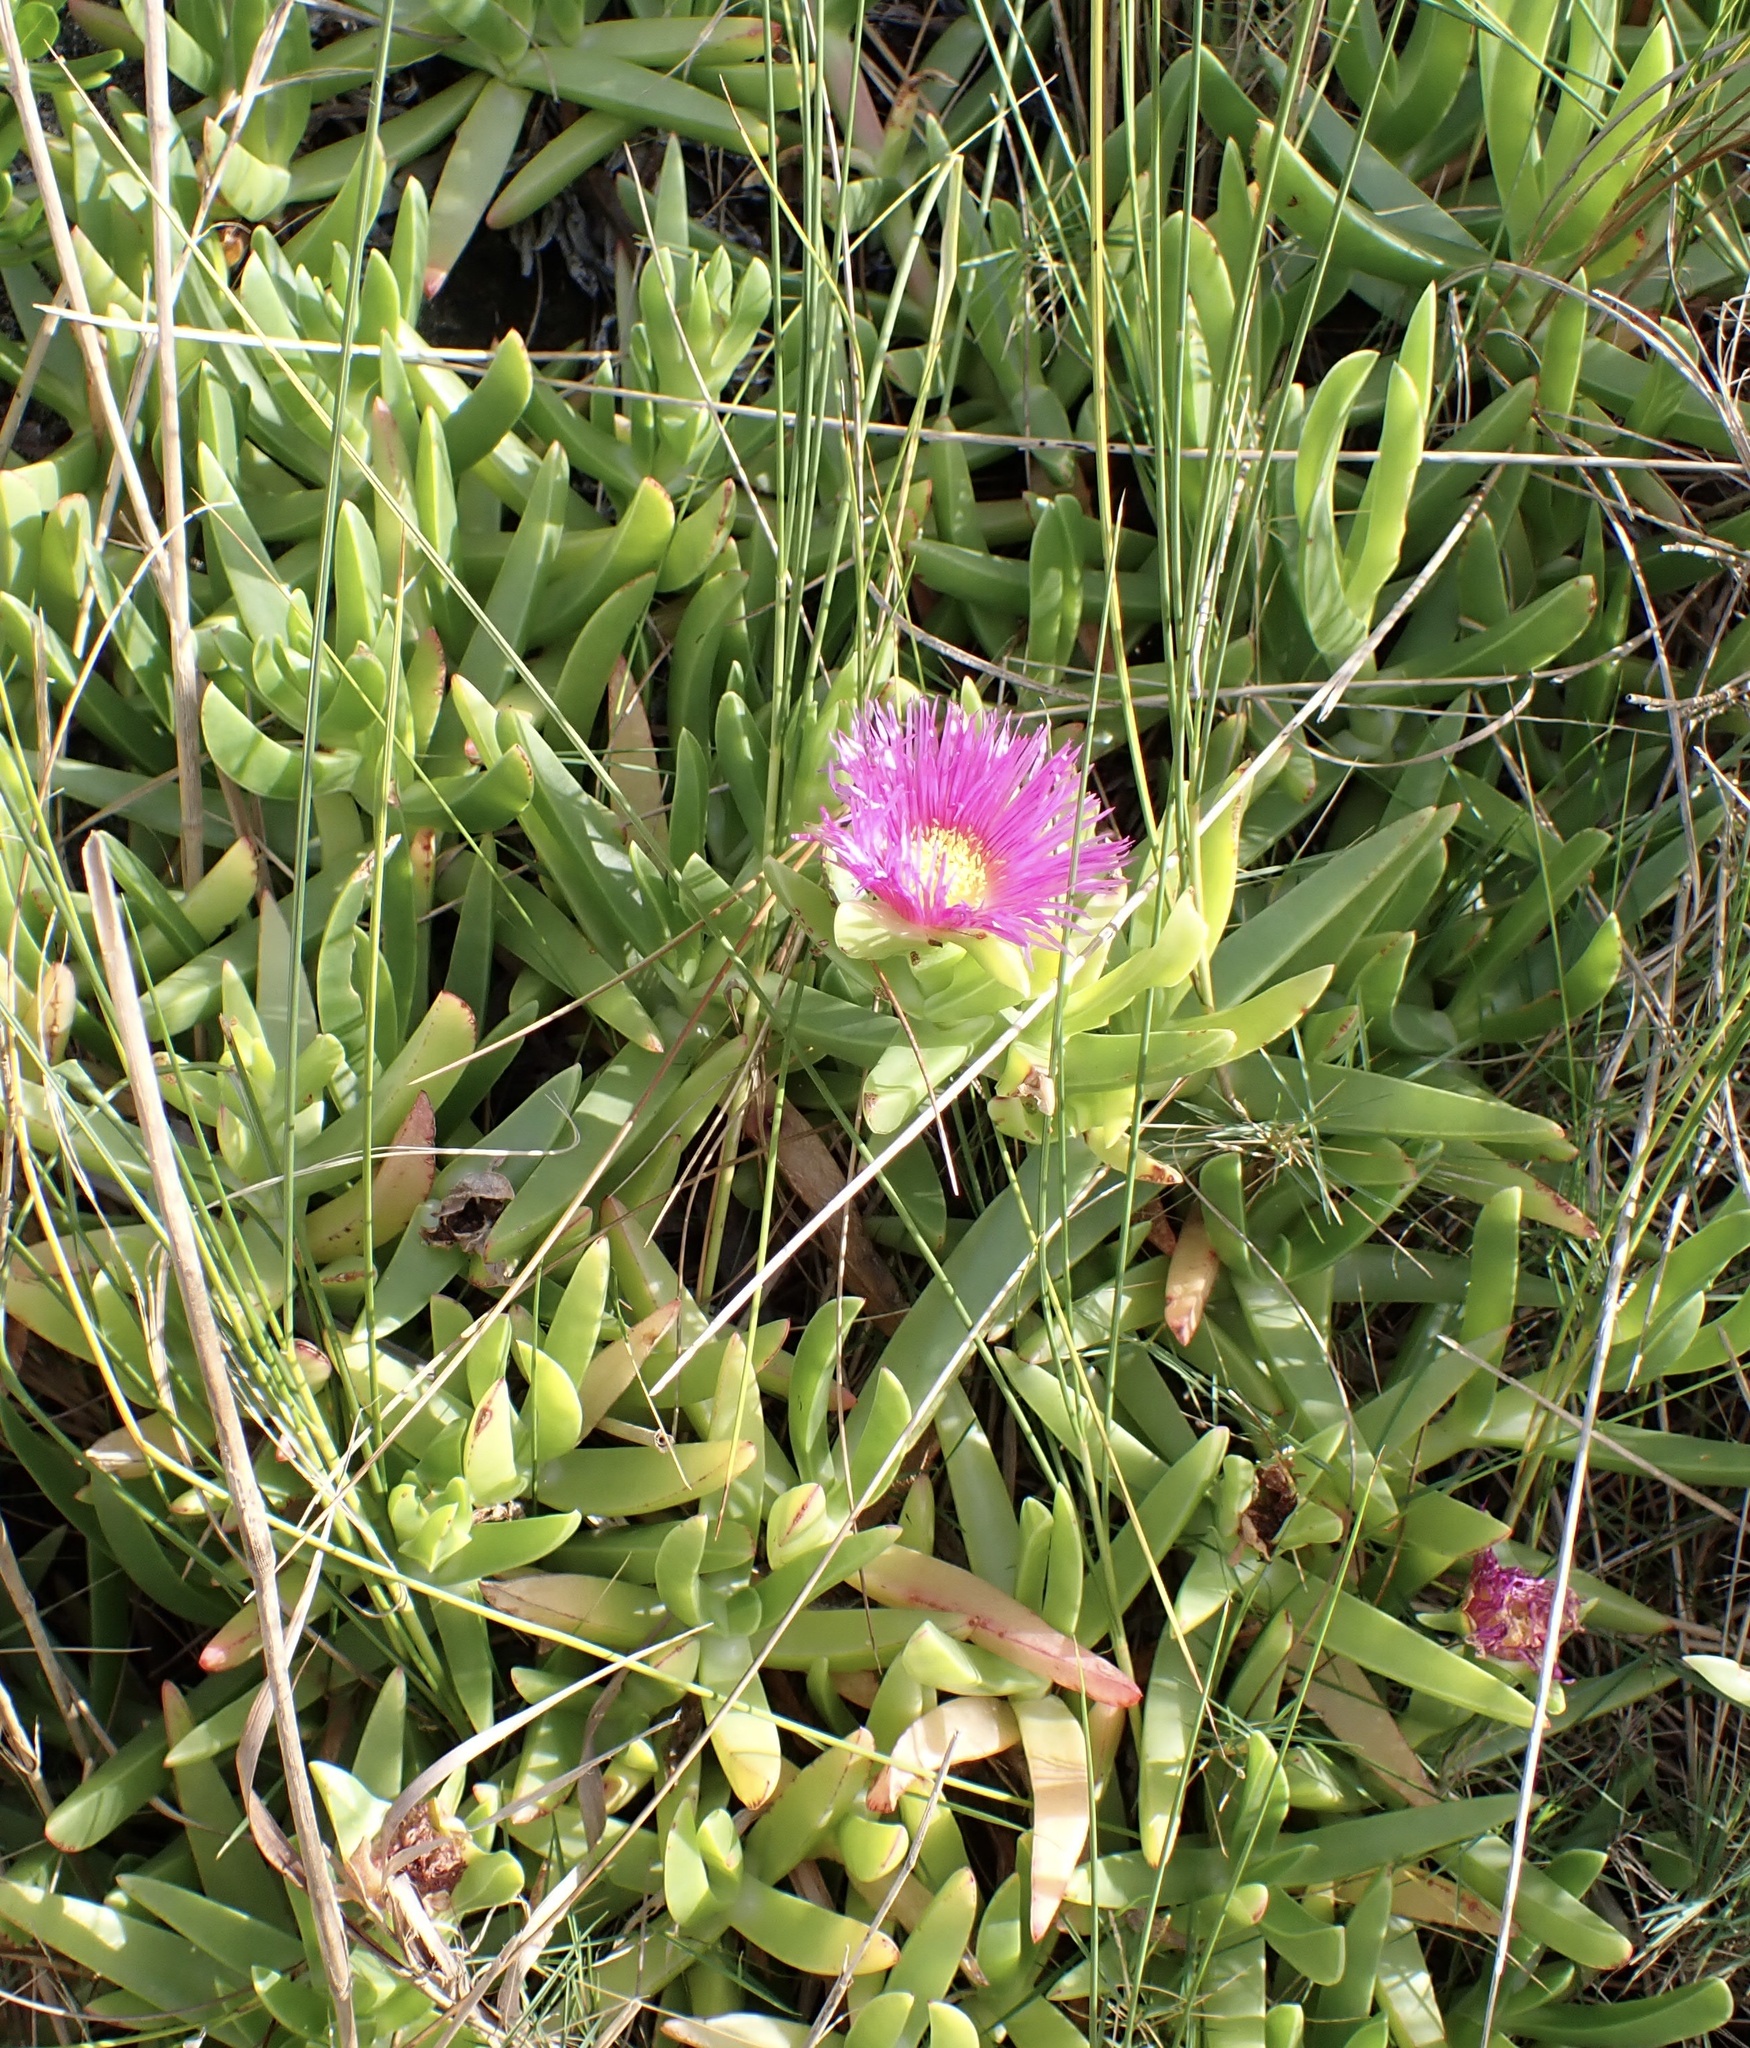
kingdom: Plantae
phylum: Tracheophyta
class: Magnoliopsida
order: Caryophyllales
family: Aizoaceae
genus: Carpobrotus
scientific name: Carpobrotus chilensis
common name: Sea fig
